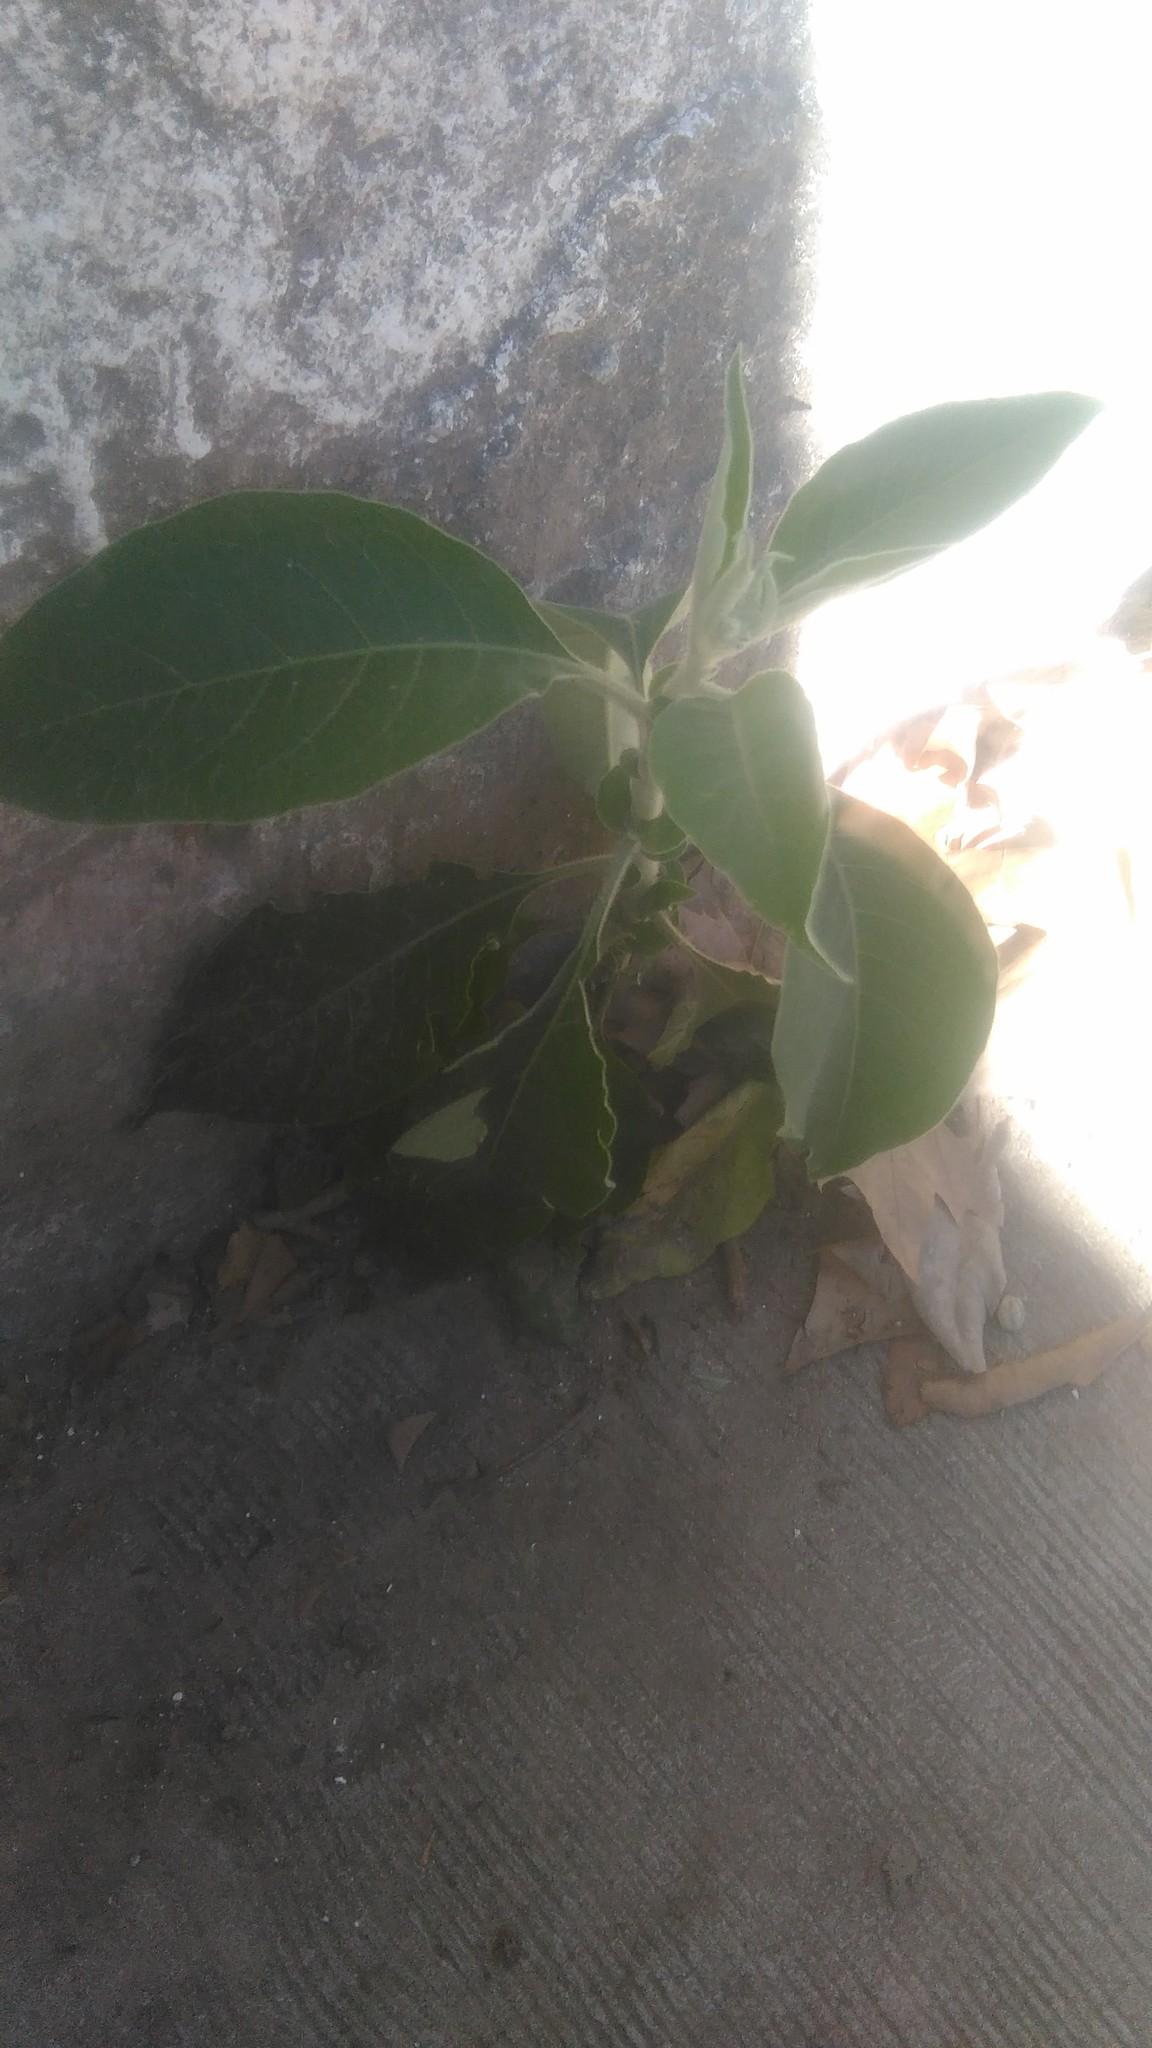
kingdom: Plantae
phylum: Tracheophyta
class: Magnoliopsida
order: Solanales
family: Solanaceae
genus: Solanum
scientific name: Solanum granulosoleprosum
